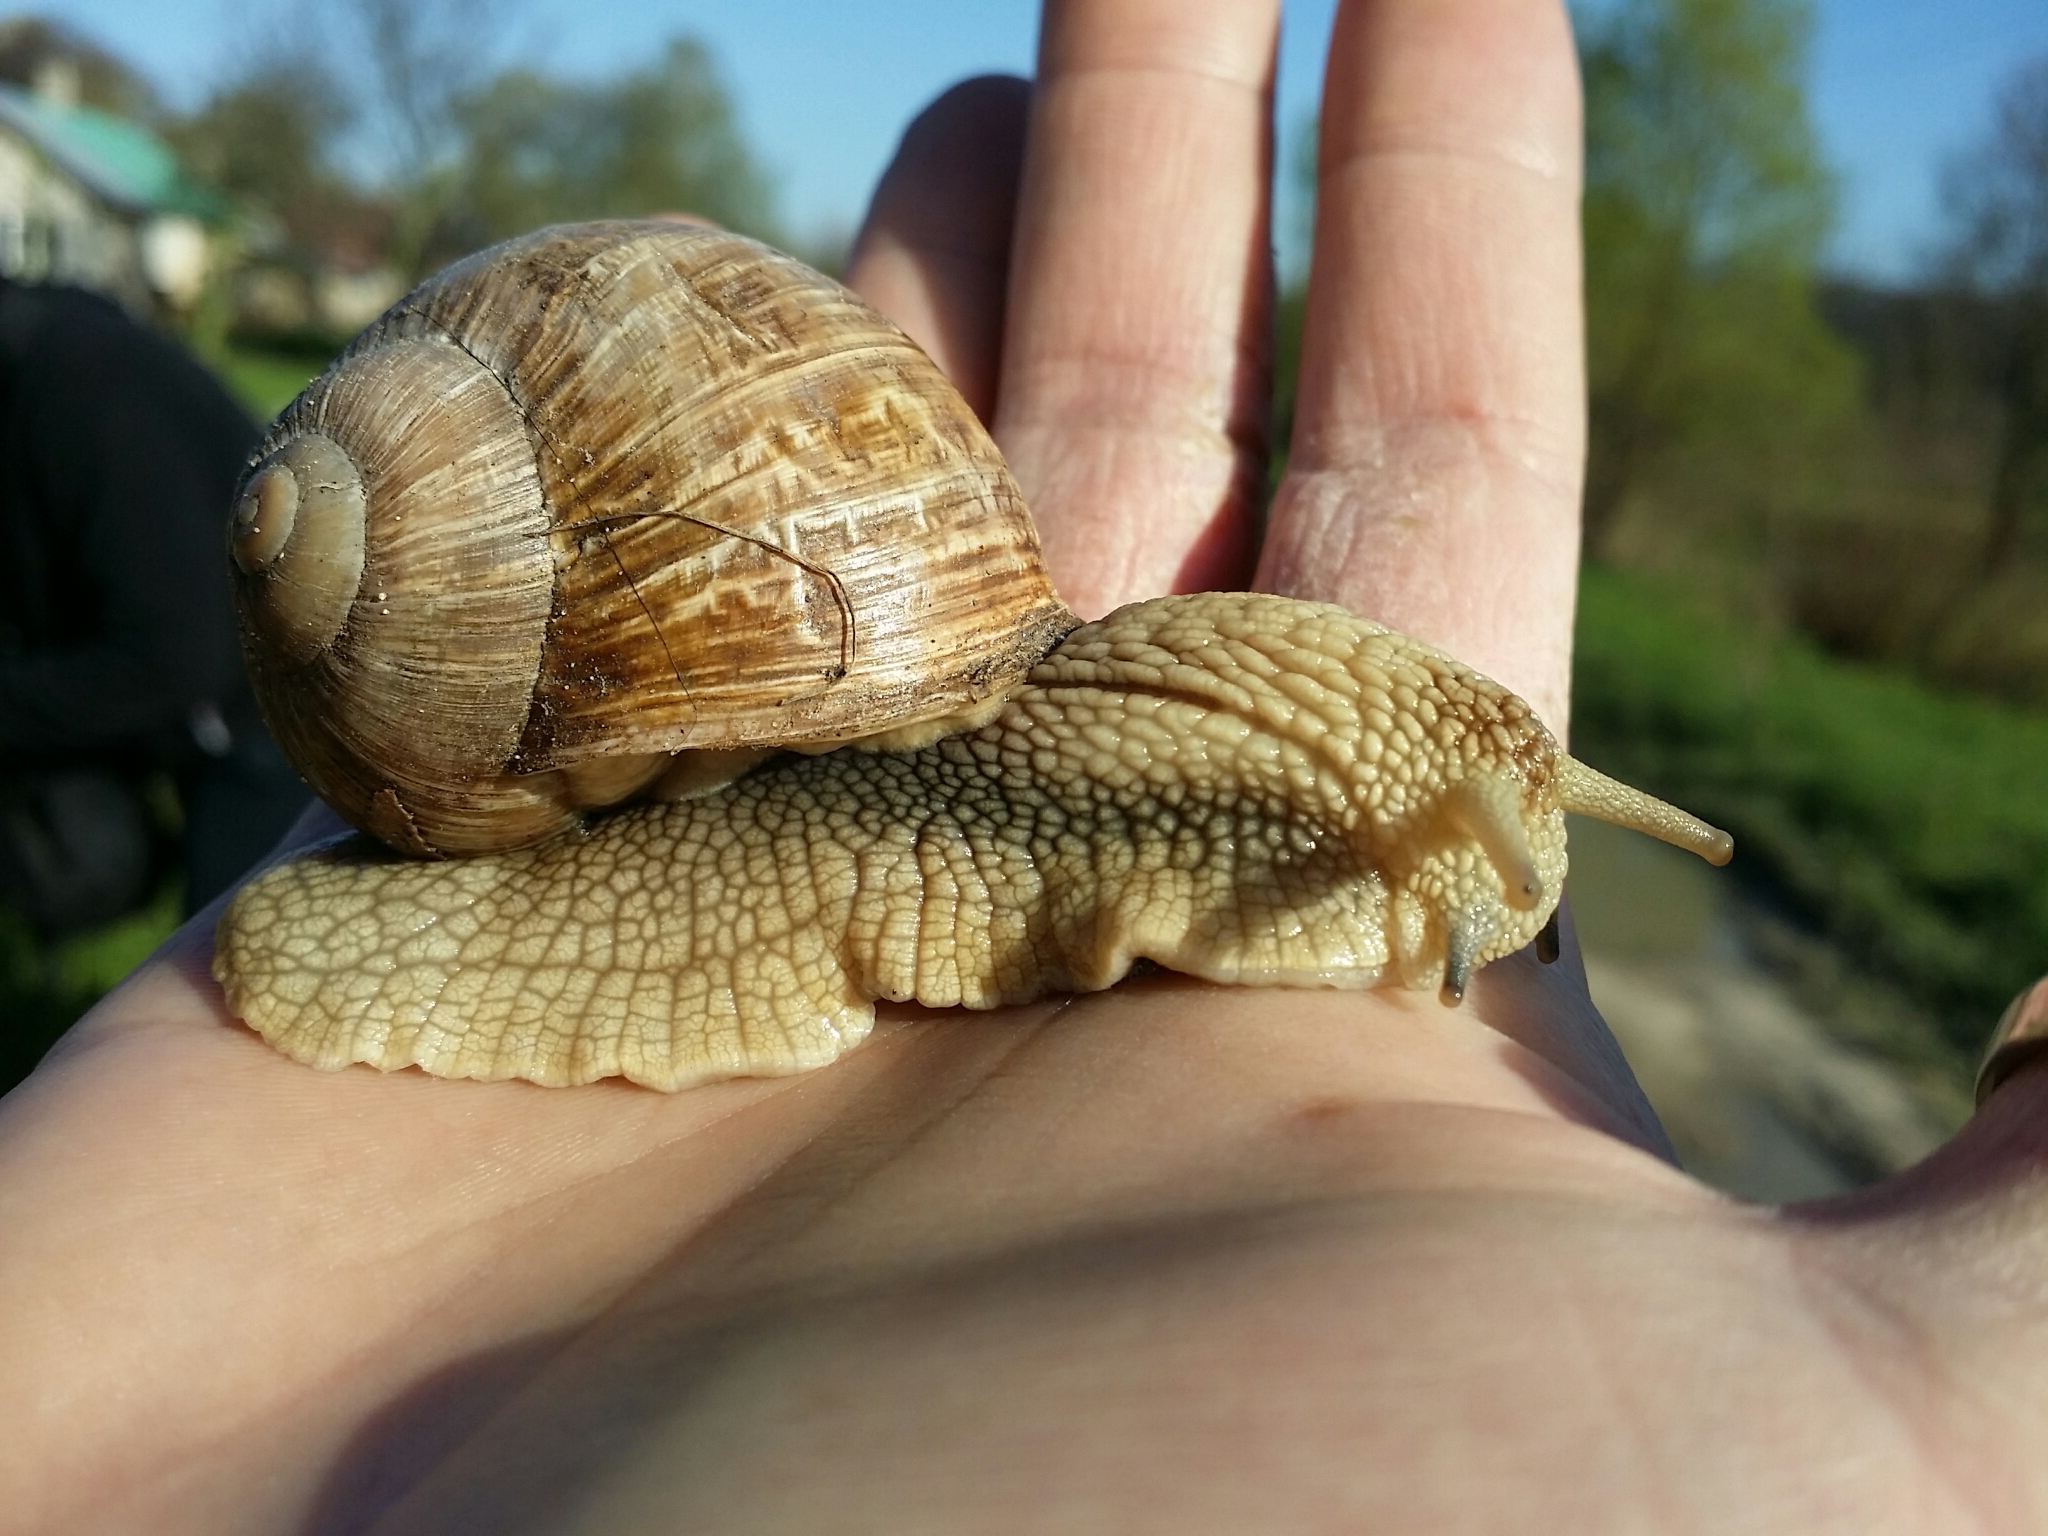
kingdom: Animalia
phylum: Mollusca
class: Gastropoda
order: Stylommatophora
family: Helicidae
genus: Helix
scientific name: Helix pomatia
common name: Roman snail
